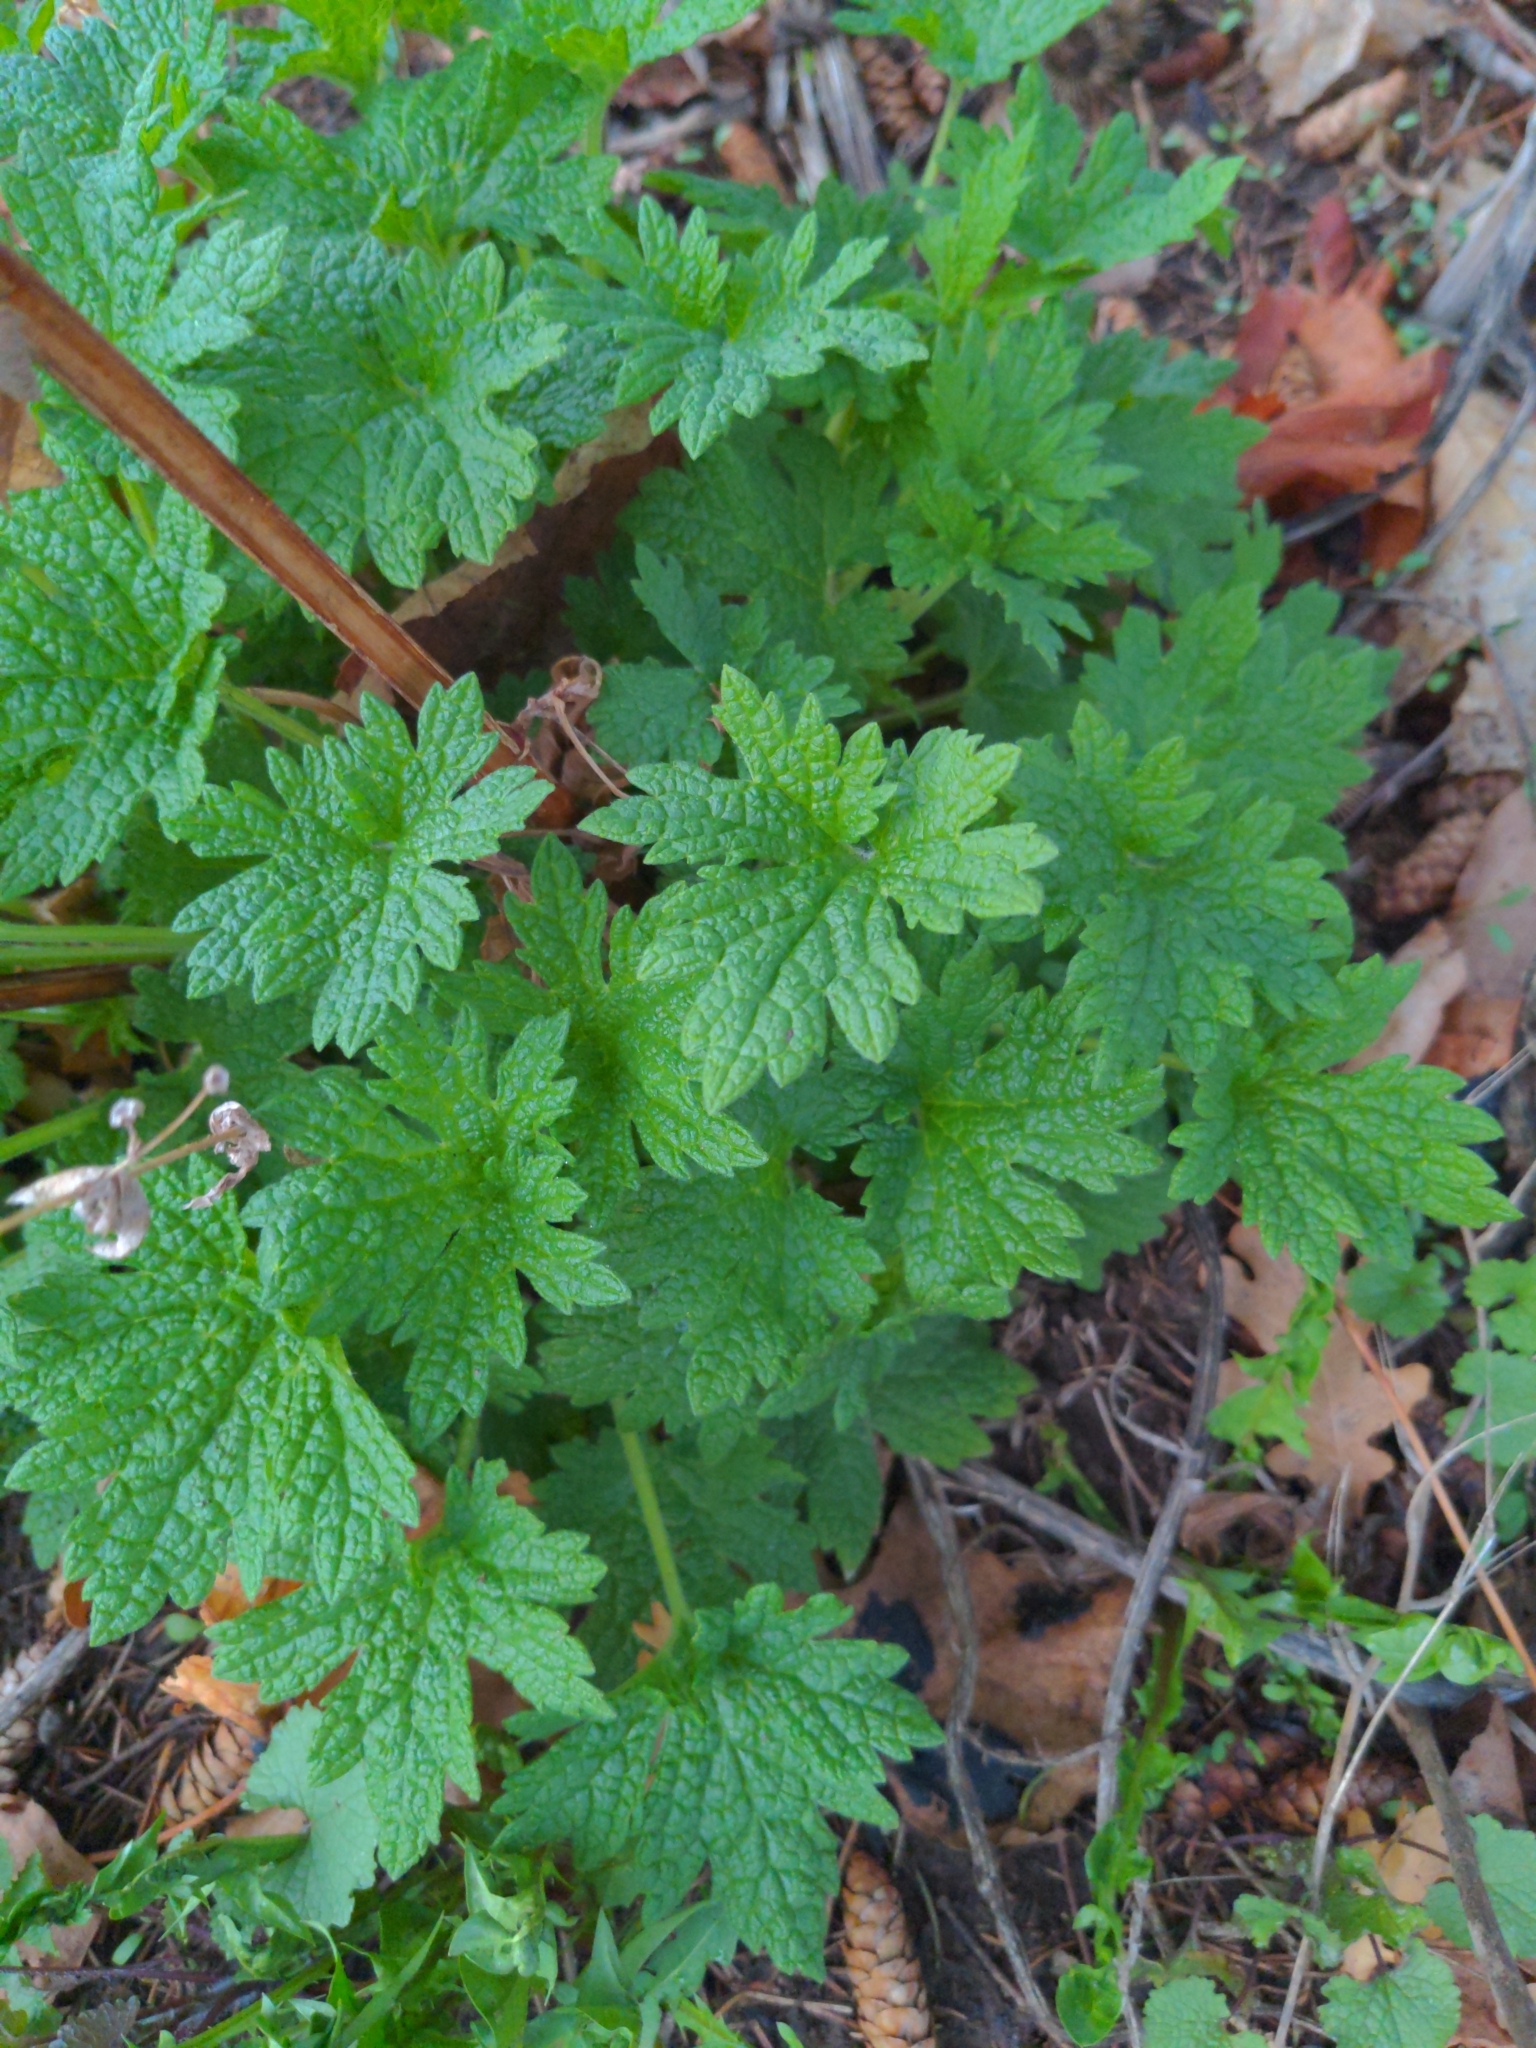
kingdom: Plantae
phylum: Tracheophyta
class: Magnoliopsida
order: Lamiales
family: Lamiaceae
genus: Leonurus
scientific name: Leonurus cardiaca
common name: Motherwort
